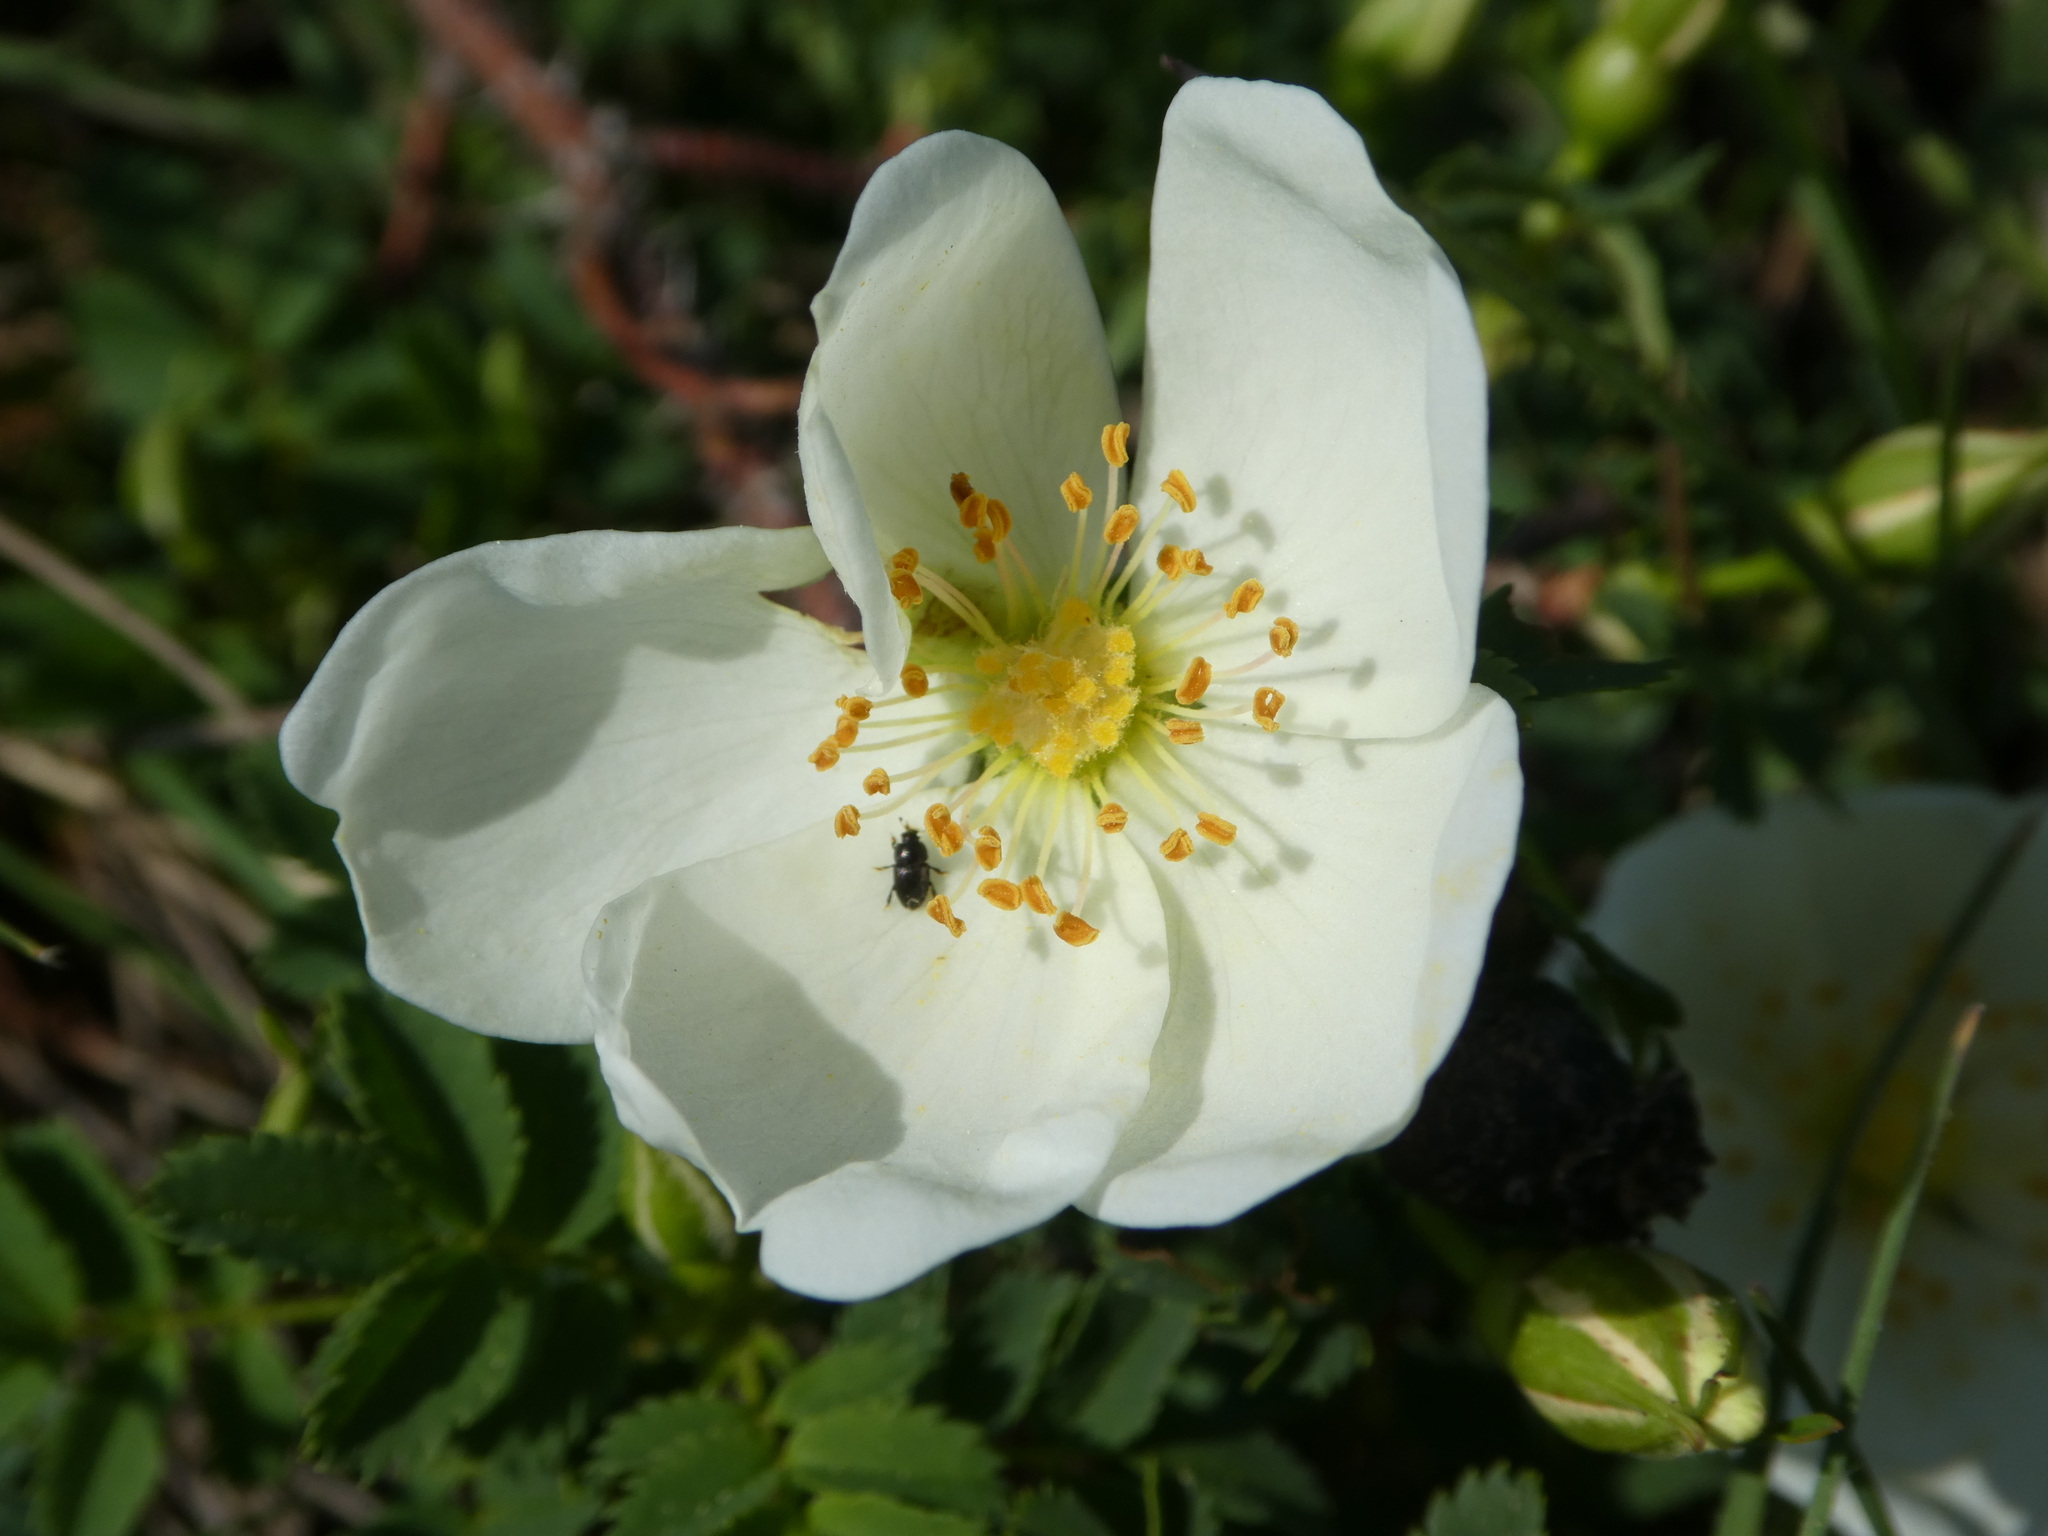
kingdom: Plantae
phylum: Tracheophyta
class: Magnoliopsida
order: Rosales
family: Rosaceae
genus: Rosa
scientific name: Rosa spinosissima
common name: Burnet rose
